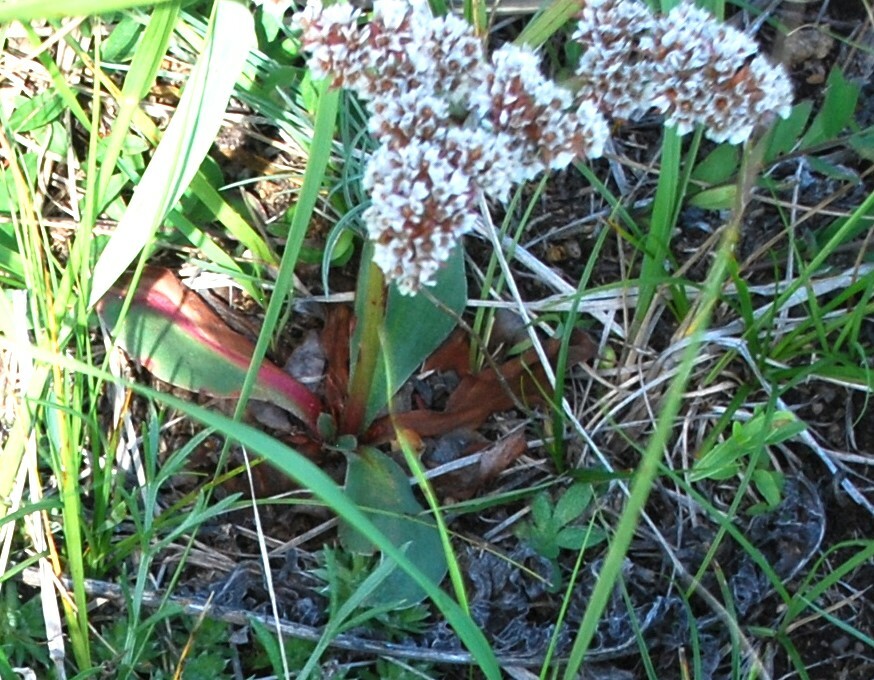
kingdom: Plantae
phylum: Tracheophyta
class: Magnoliopsida
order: Caryophyllales
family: Plumbaginaceae
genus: Goniolimon
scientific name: Goniolimon speciosum
